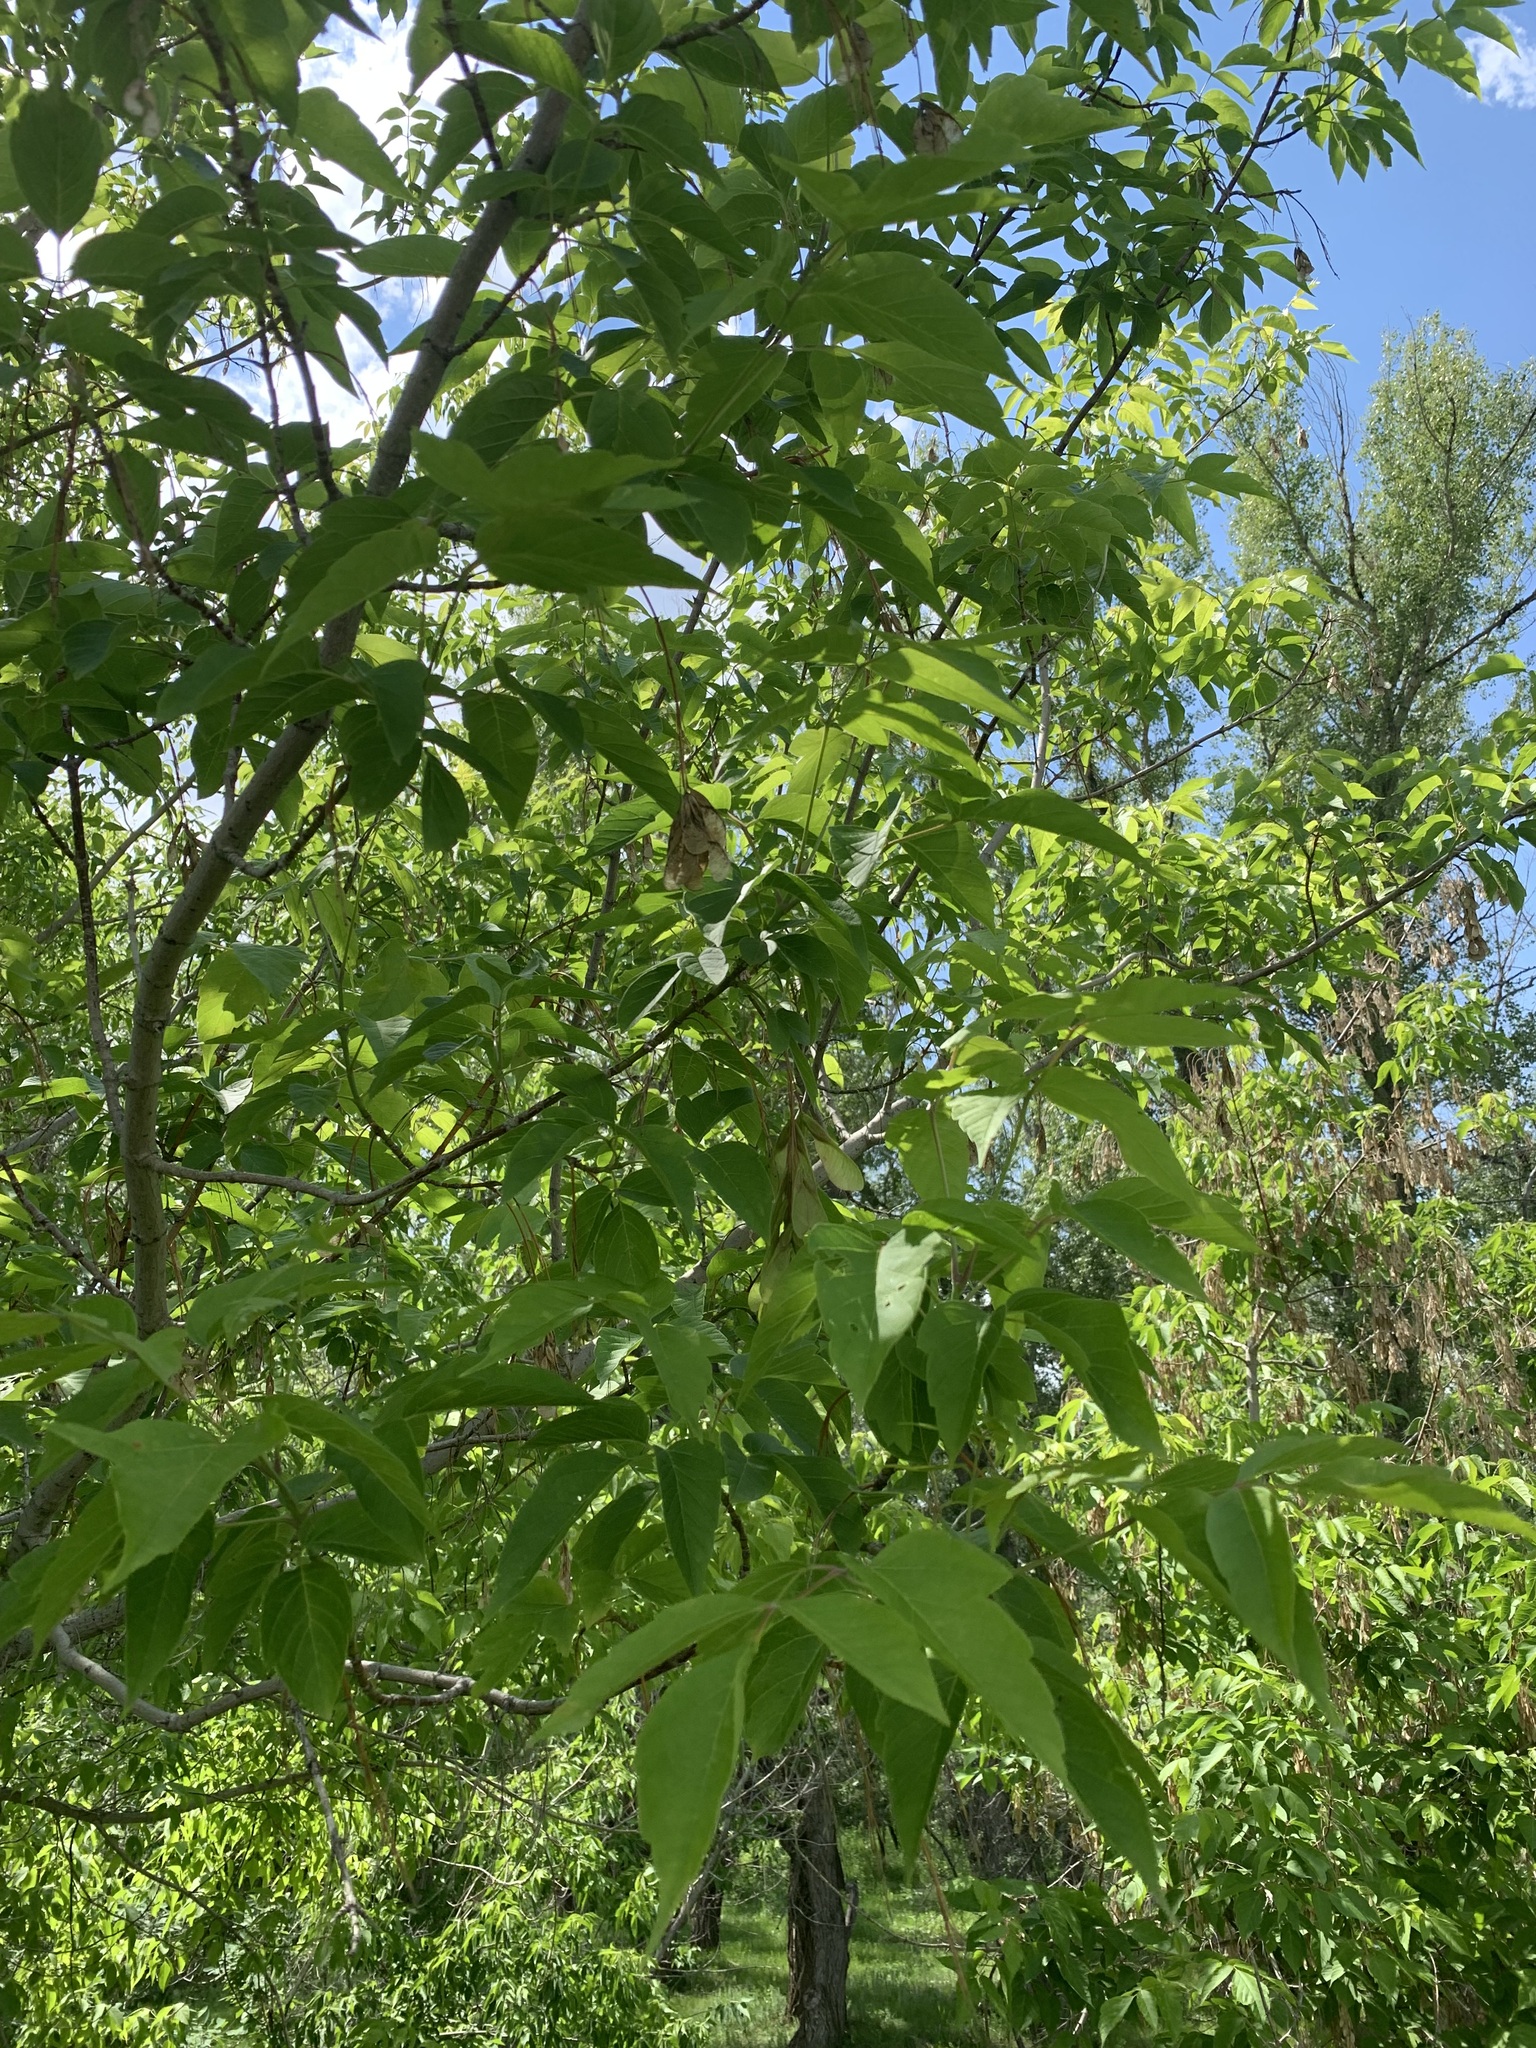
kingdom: Plantae
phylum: Tracheophyta
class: Magnoliopsida
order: Sapindales
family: Sapindaceae
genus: Acer
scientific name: Acer negundo
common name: Ashleaf maple
